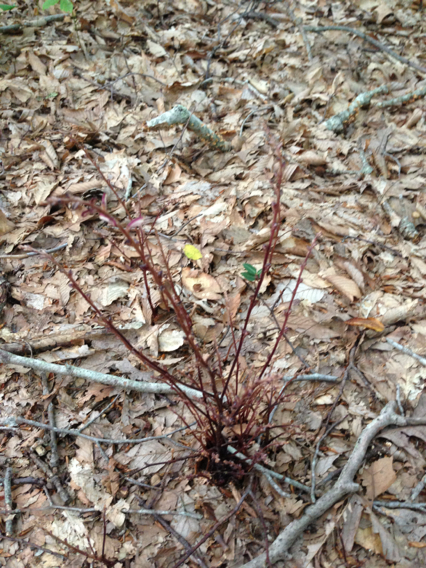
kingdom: Plantae
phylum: Tracheophyta
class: Magnoliopsida
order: Lamiales
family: Orobanchaceae
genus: Epifagus
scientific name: Epifagus virginiana
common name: Beechdrops
